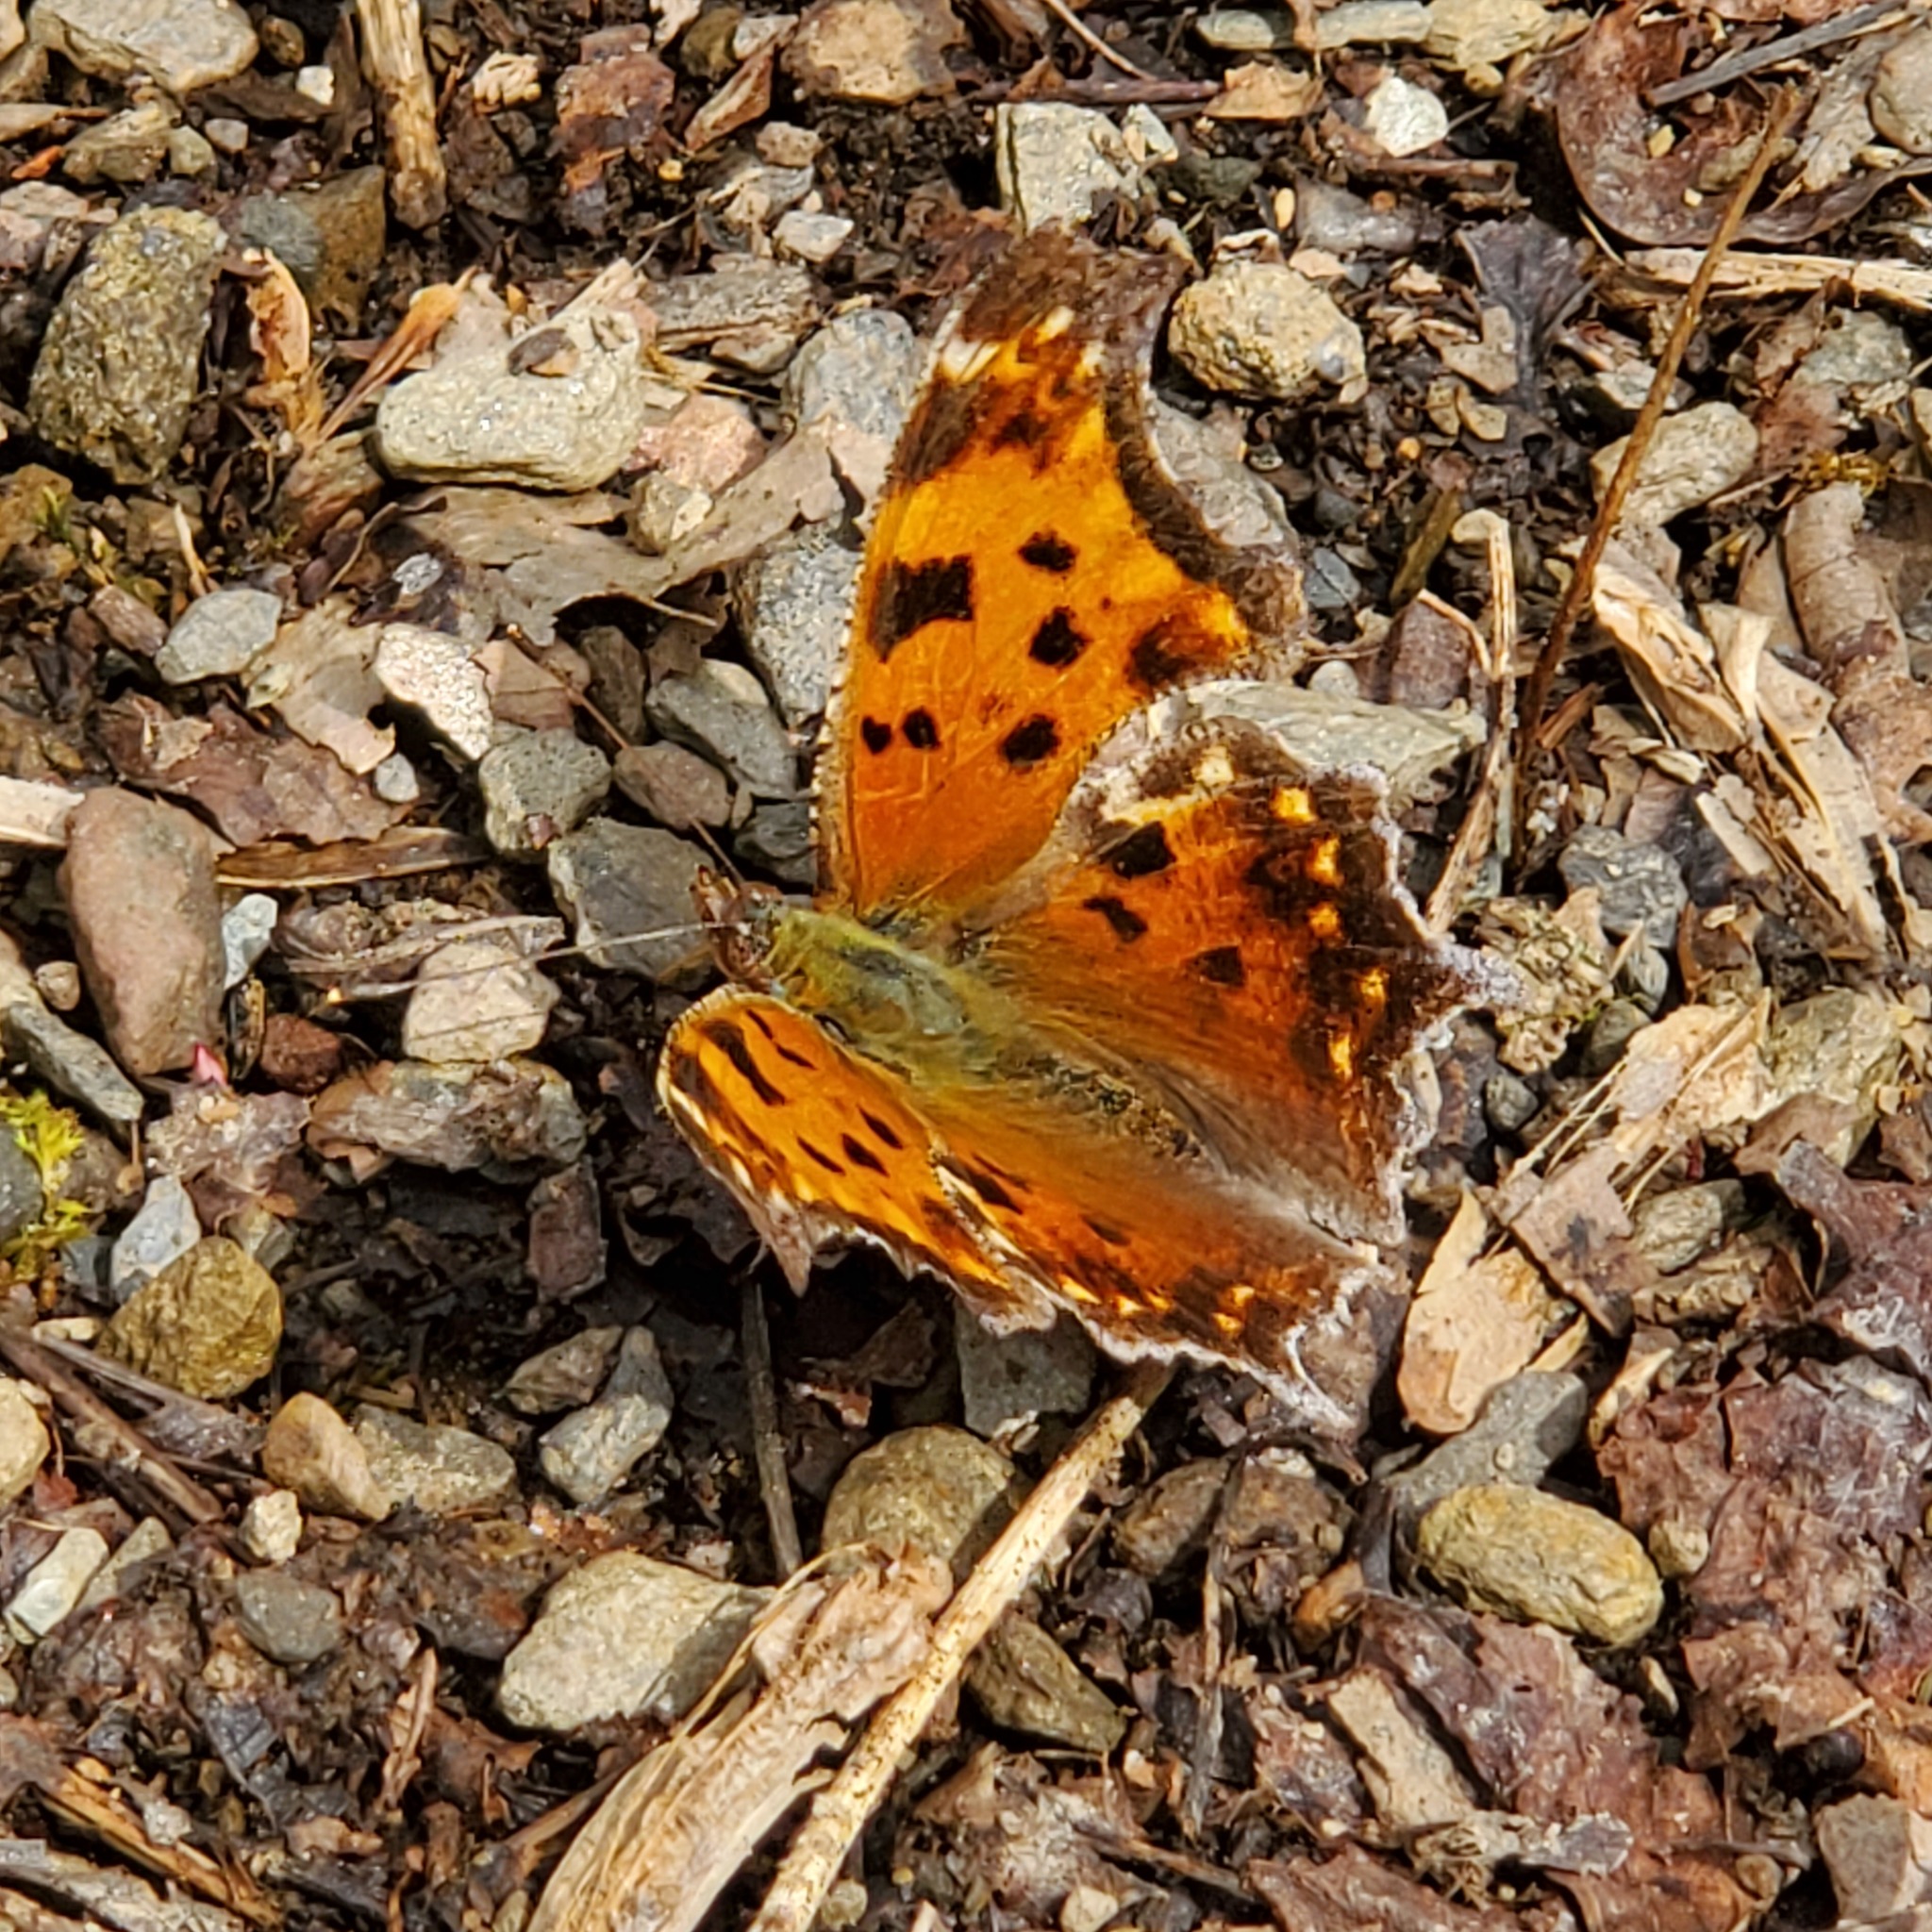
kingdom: Animalia
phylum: Arthropoda
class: Insecta
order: Lepidoptera
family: Nymphalidae
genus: Polygonia
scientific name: Polygonia comma
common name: Eastern comma
